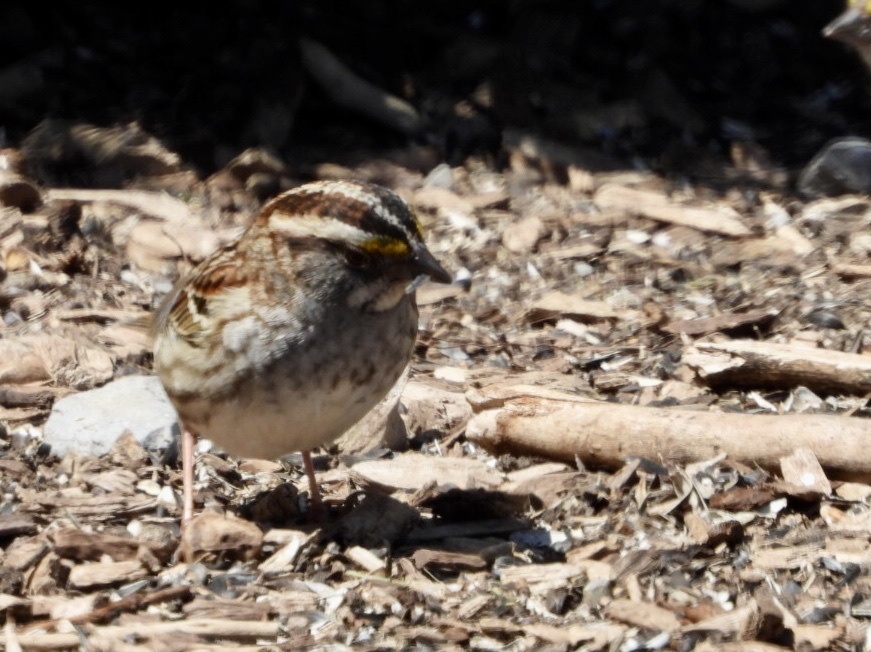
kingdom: Animalia
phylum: Chordata
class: Aves
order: Passeriformes
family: Passerellidae
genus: Zonotrichia
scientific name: Zonotrichia albicollis
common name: White-throated sparrow
